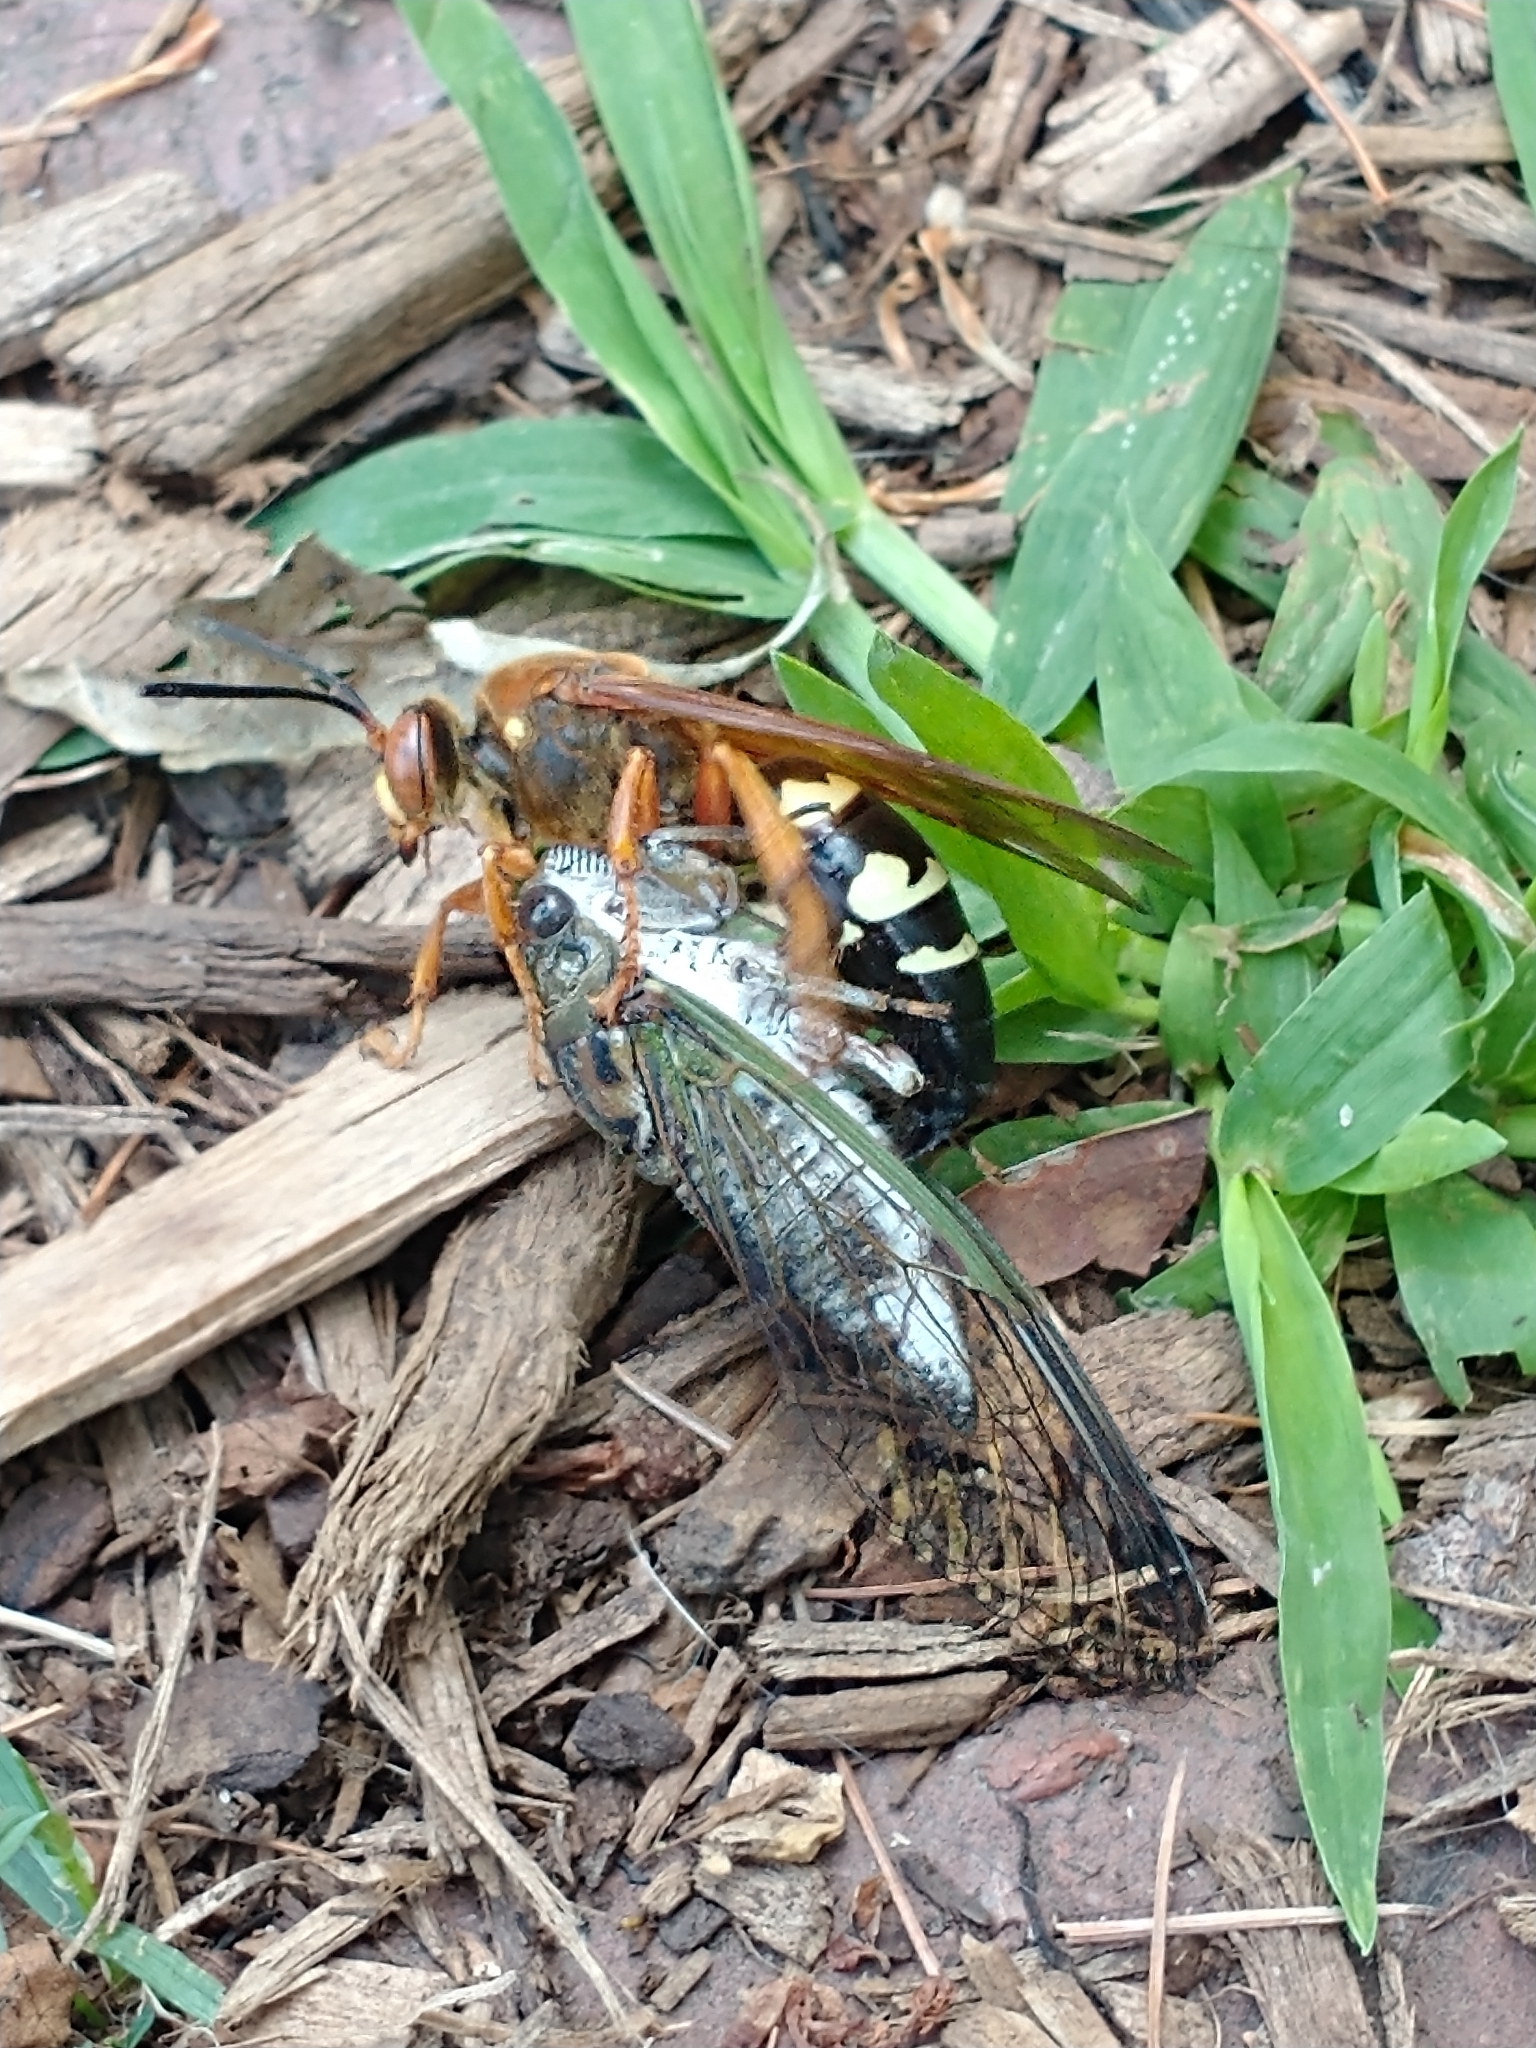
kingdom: Animalia
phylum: Arthropoda
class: Insecta
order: Hymenoptera
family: Crabronidae
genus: Sphecius
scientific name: Sphecius speciosus
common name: Cicada killer
